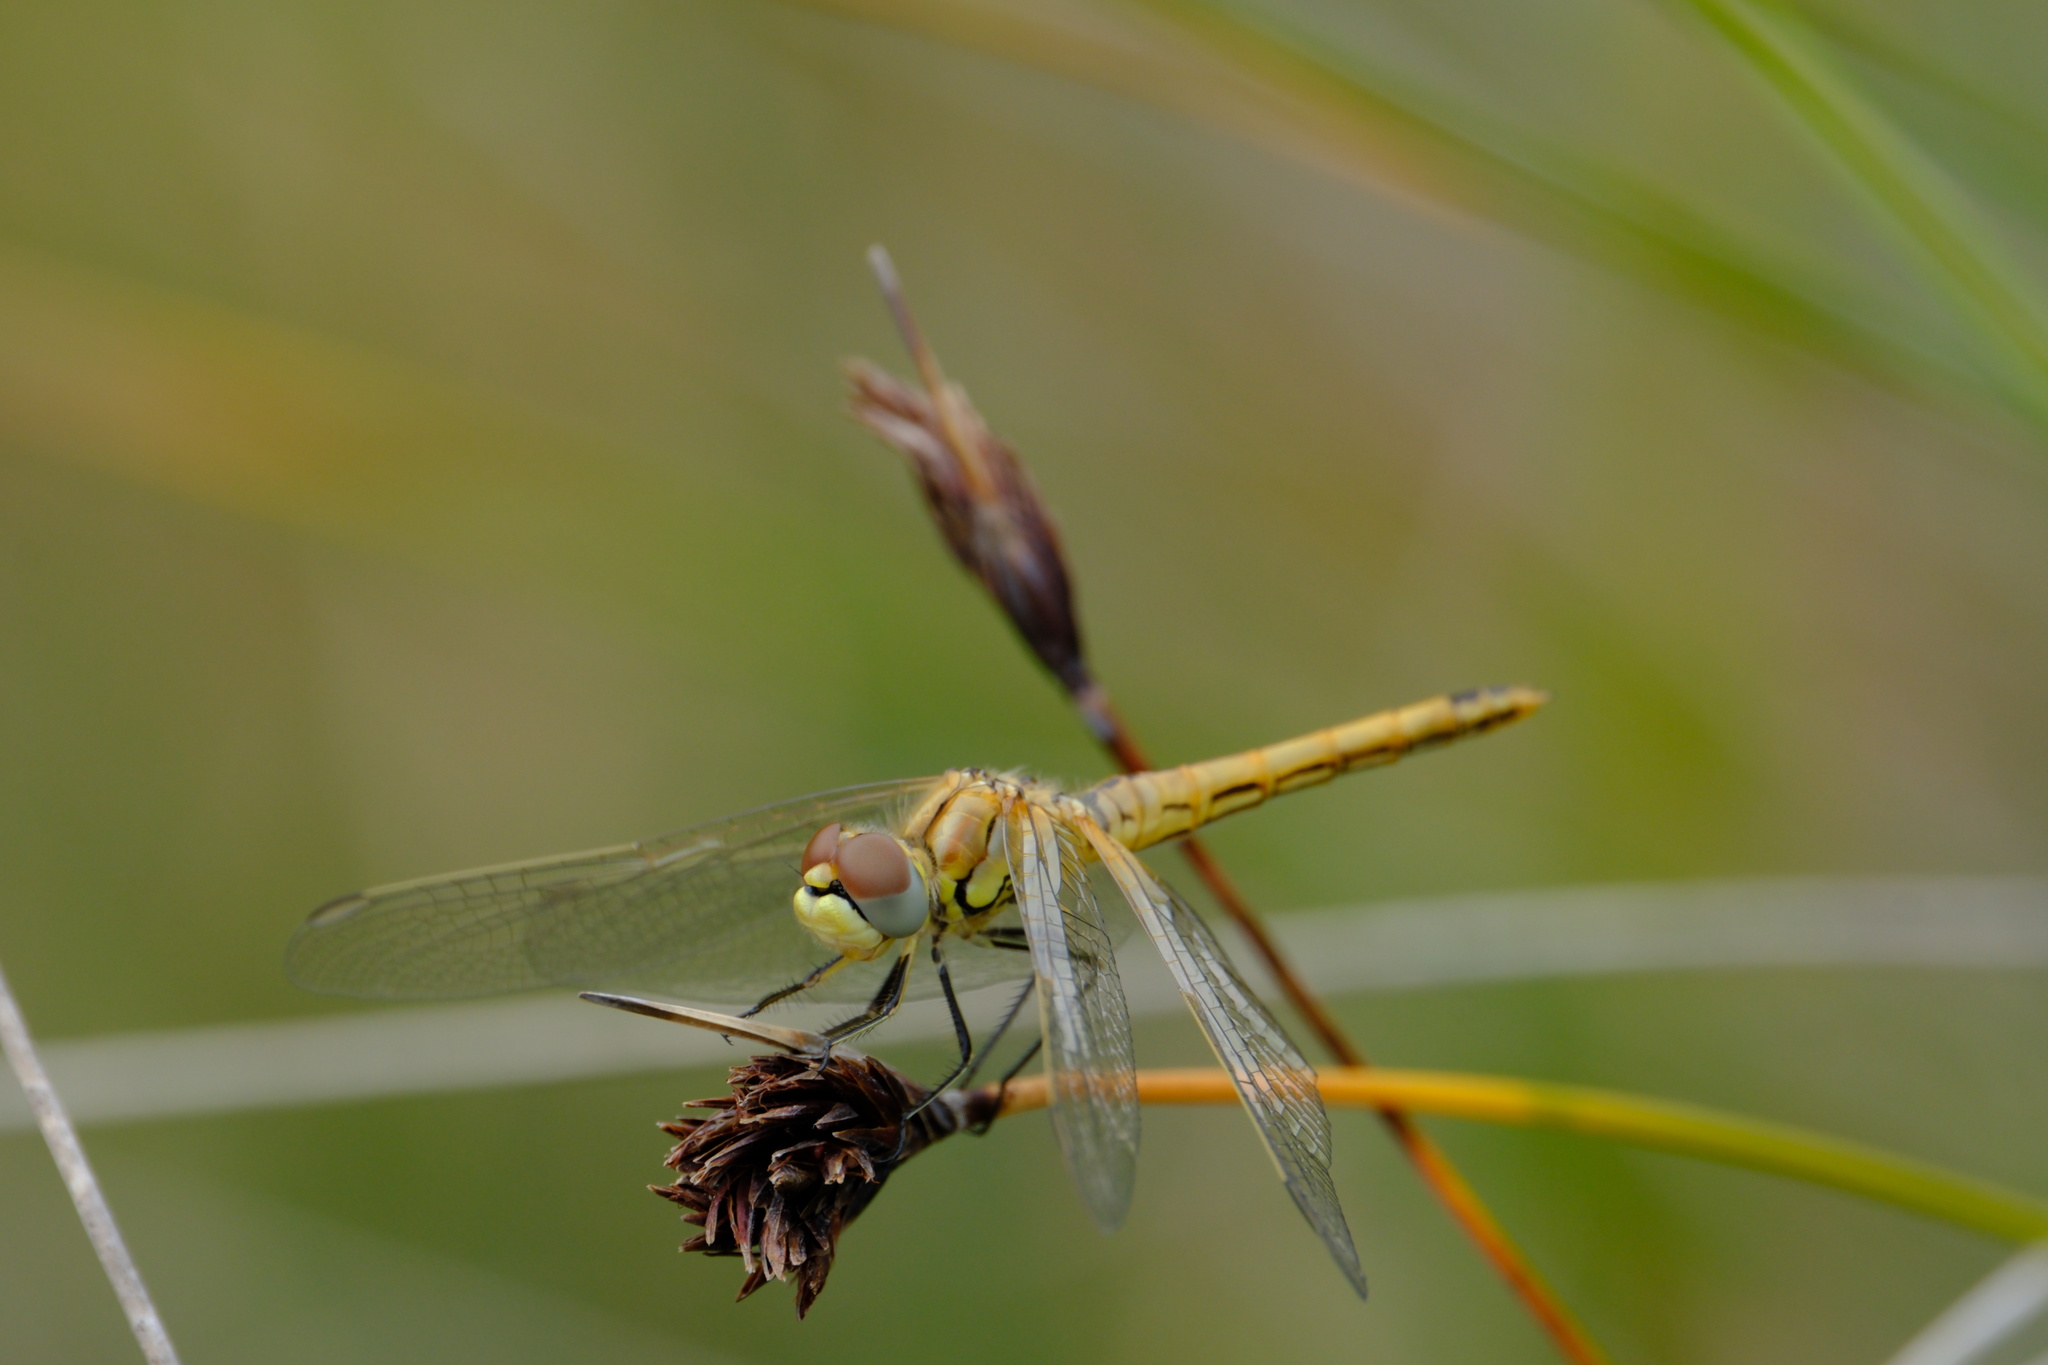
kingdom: Animalia
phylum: Arthropoda
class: Insecta
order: Odonata
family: Libellulidae
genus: Sympetrum
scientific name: Sympetrum fonscolombii
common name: Red-veined darter
